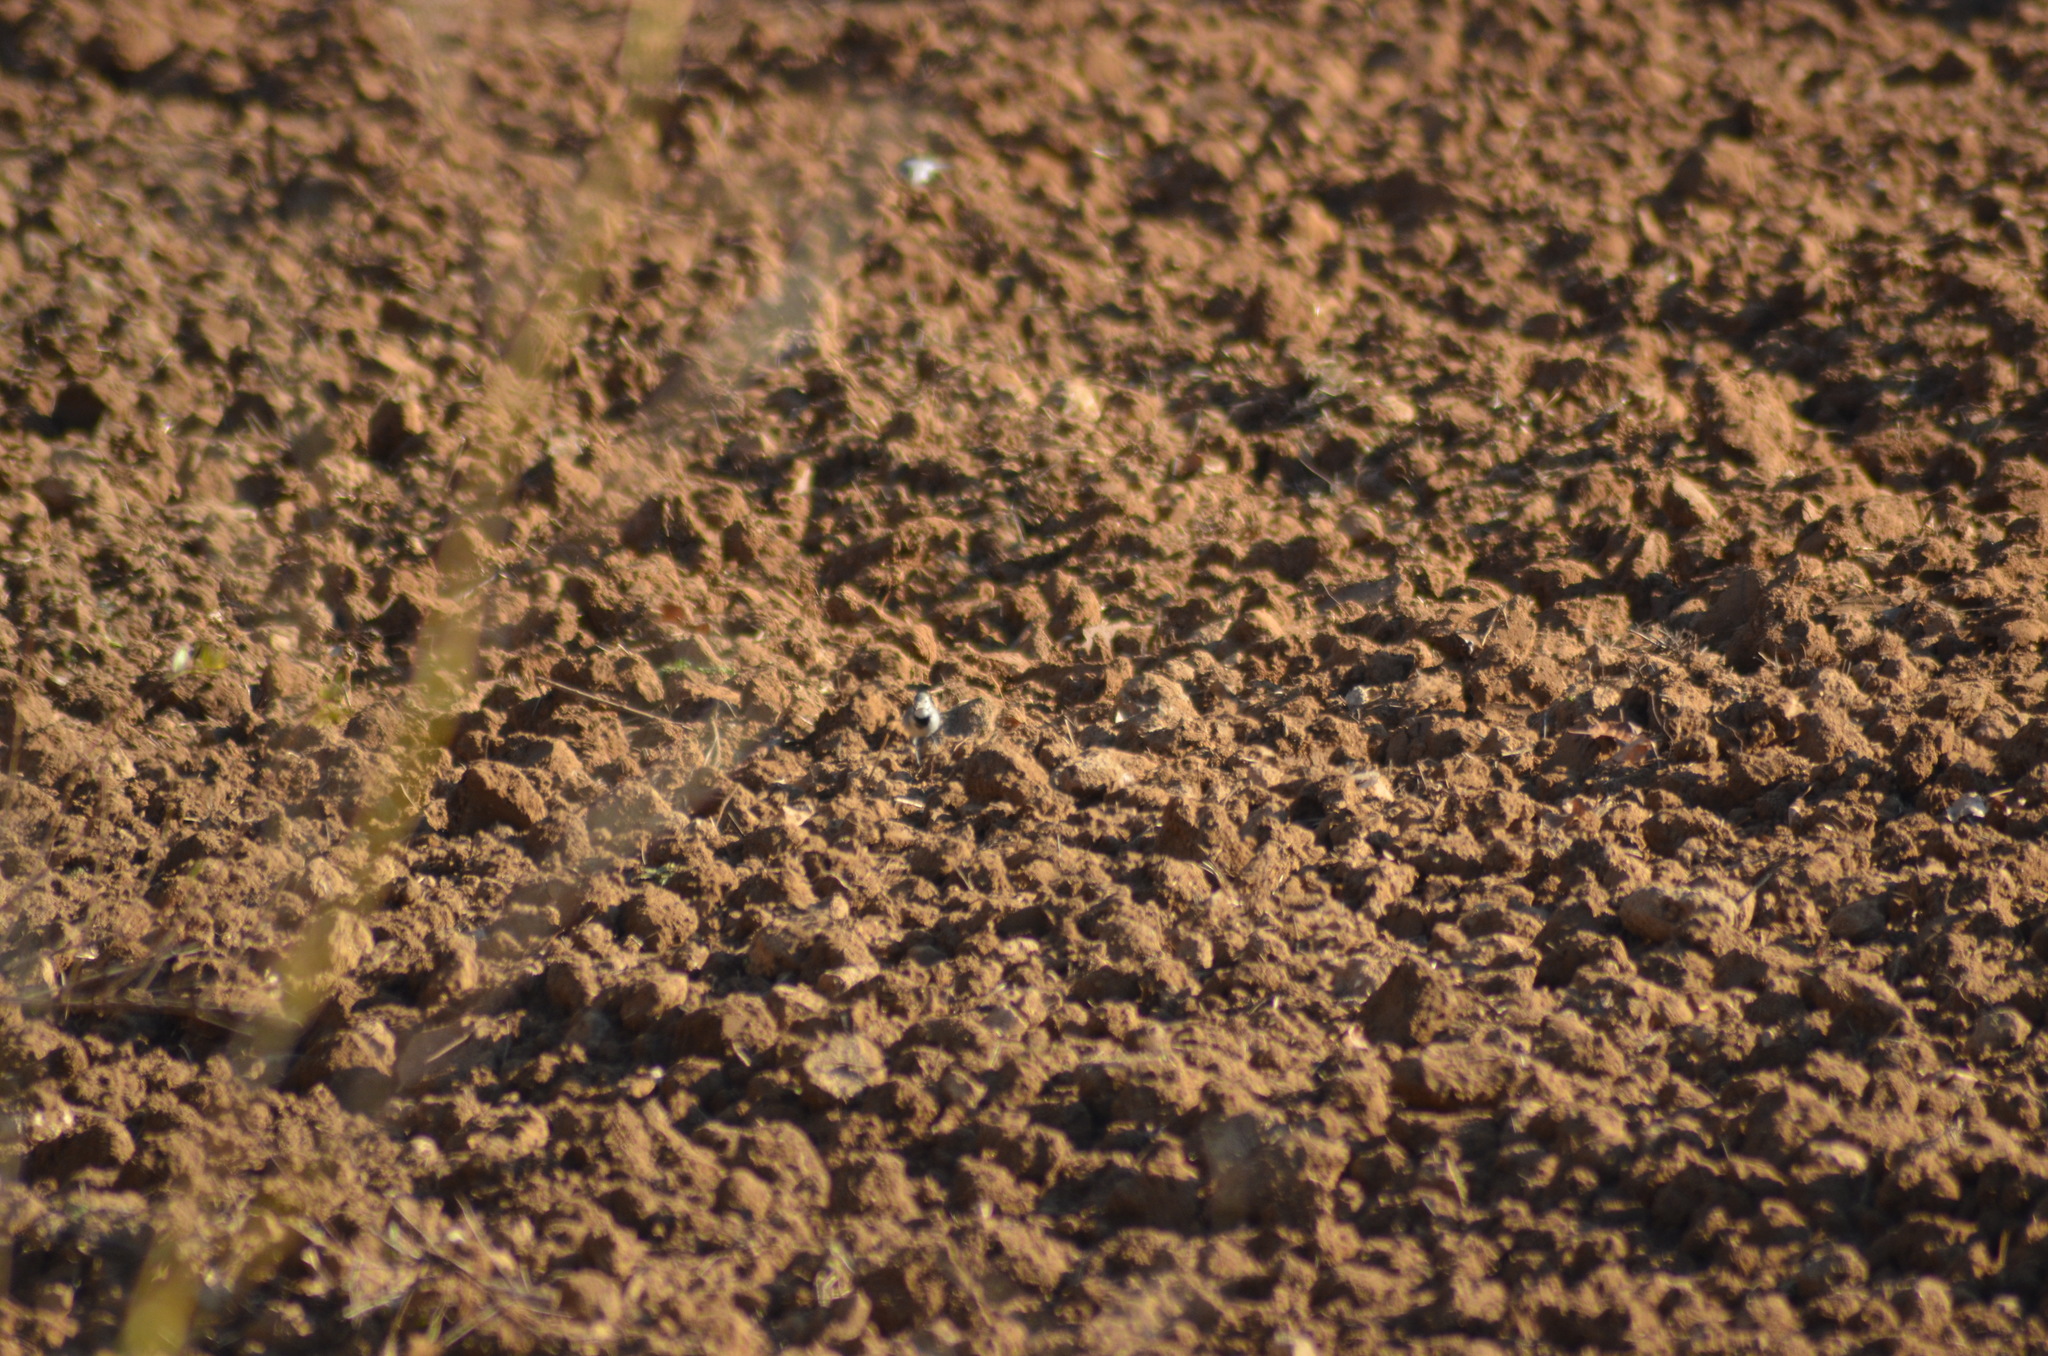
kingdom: Animalia
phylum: Chordata
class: Aves
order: Passeriformes
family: Motacillidae
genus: Motacilla
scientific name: Motacilla alba
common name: White wagtail
